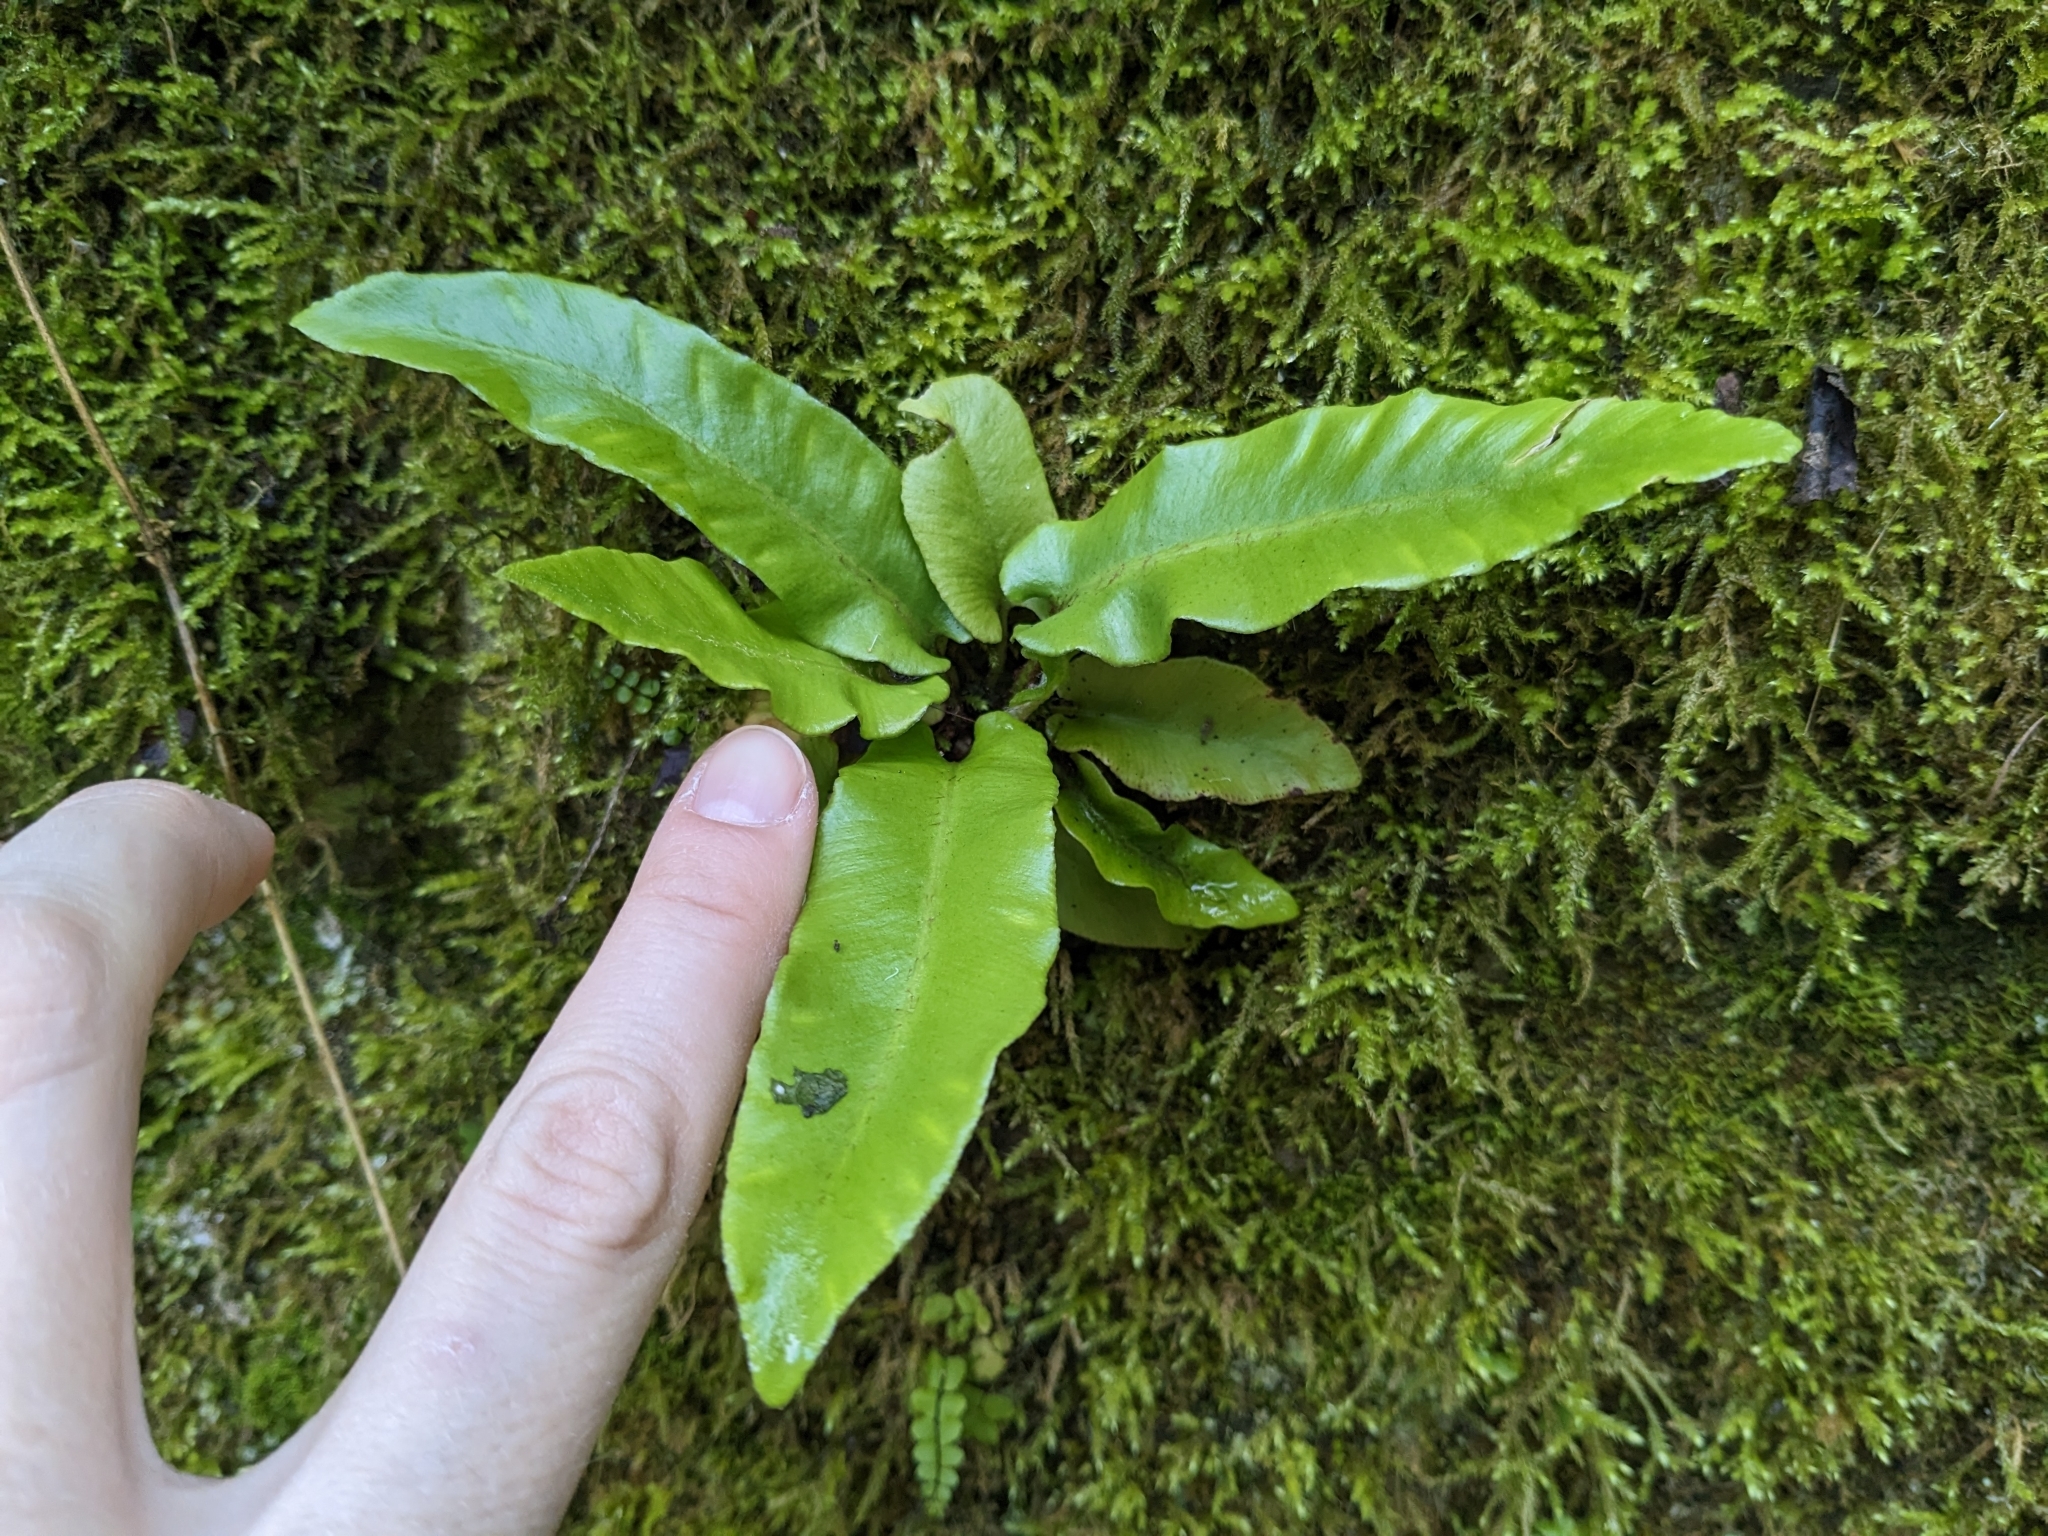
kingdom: Plantae
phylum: Tracheophyta
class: Polypodiopsida
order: Polypodiales
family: Aspleniaceae
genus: Asplenium
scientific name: Asplenium scolopendrium
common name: Hart's-tongue fern
